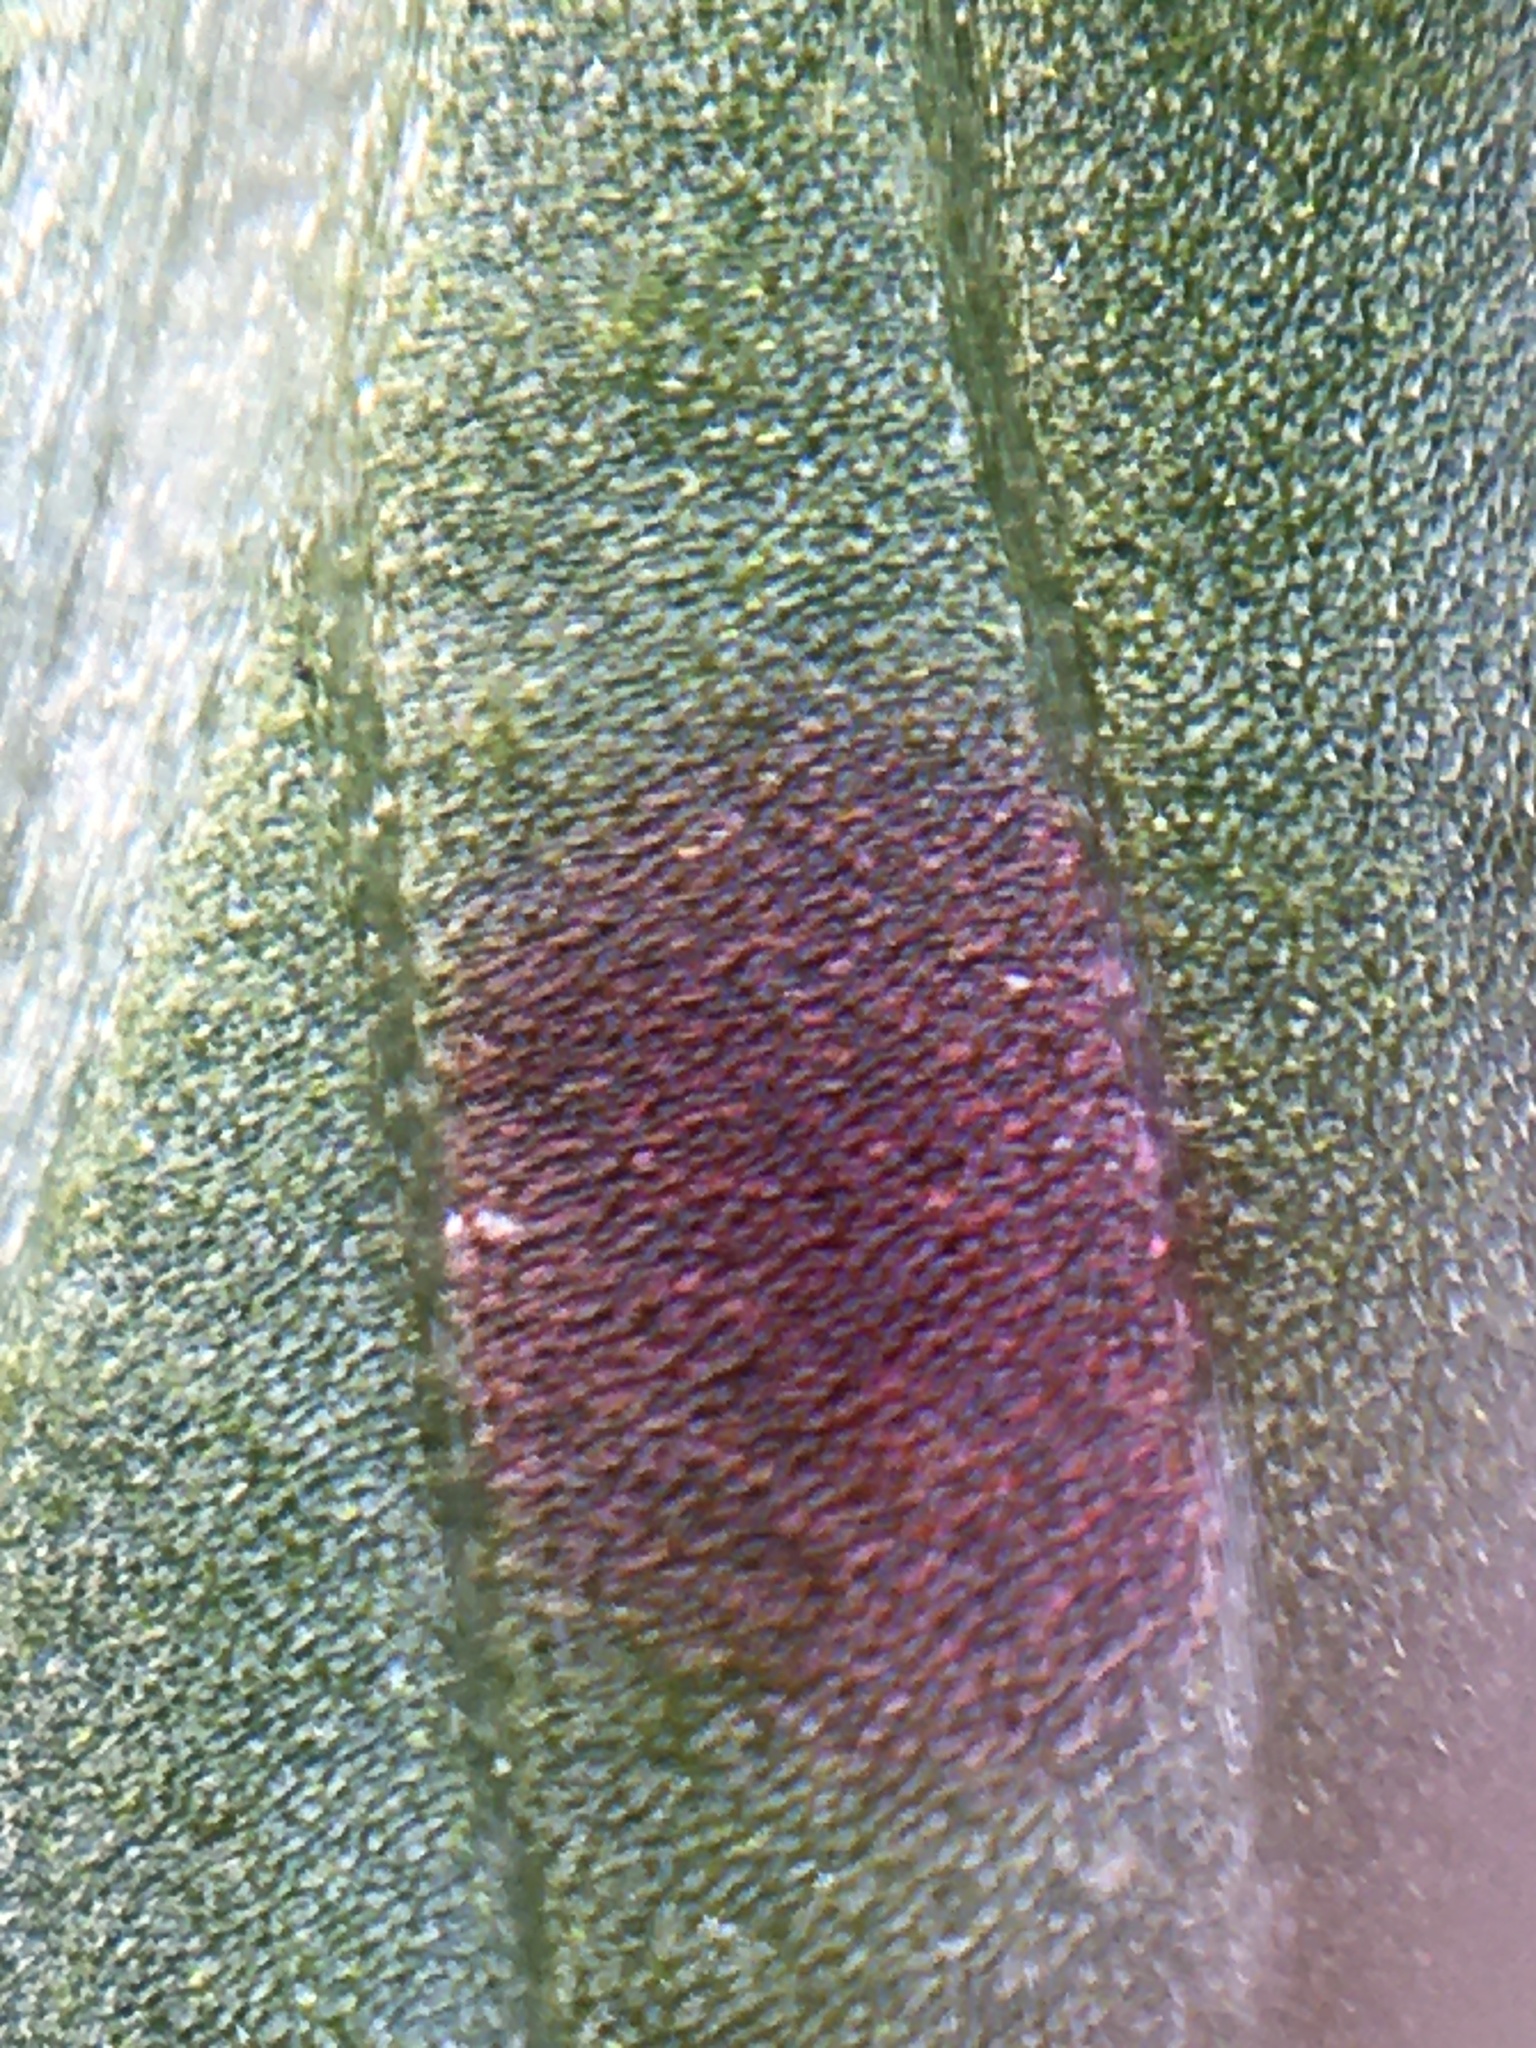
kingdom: Fungi
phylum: Ascomycota
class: Dothideomycetes
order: Mycosphaerellales
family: Mycosphaerellaceae
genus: Septoria
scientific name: Septoria oenotherae
